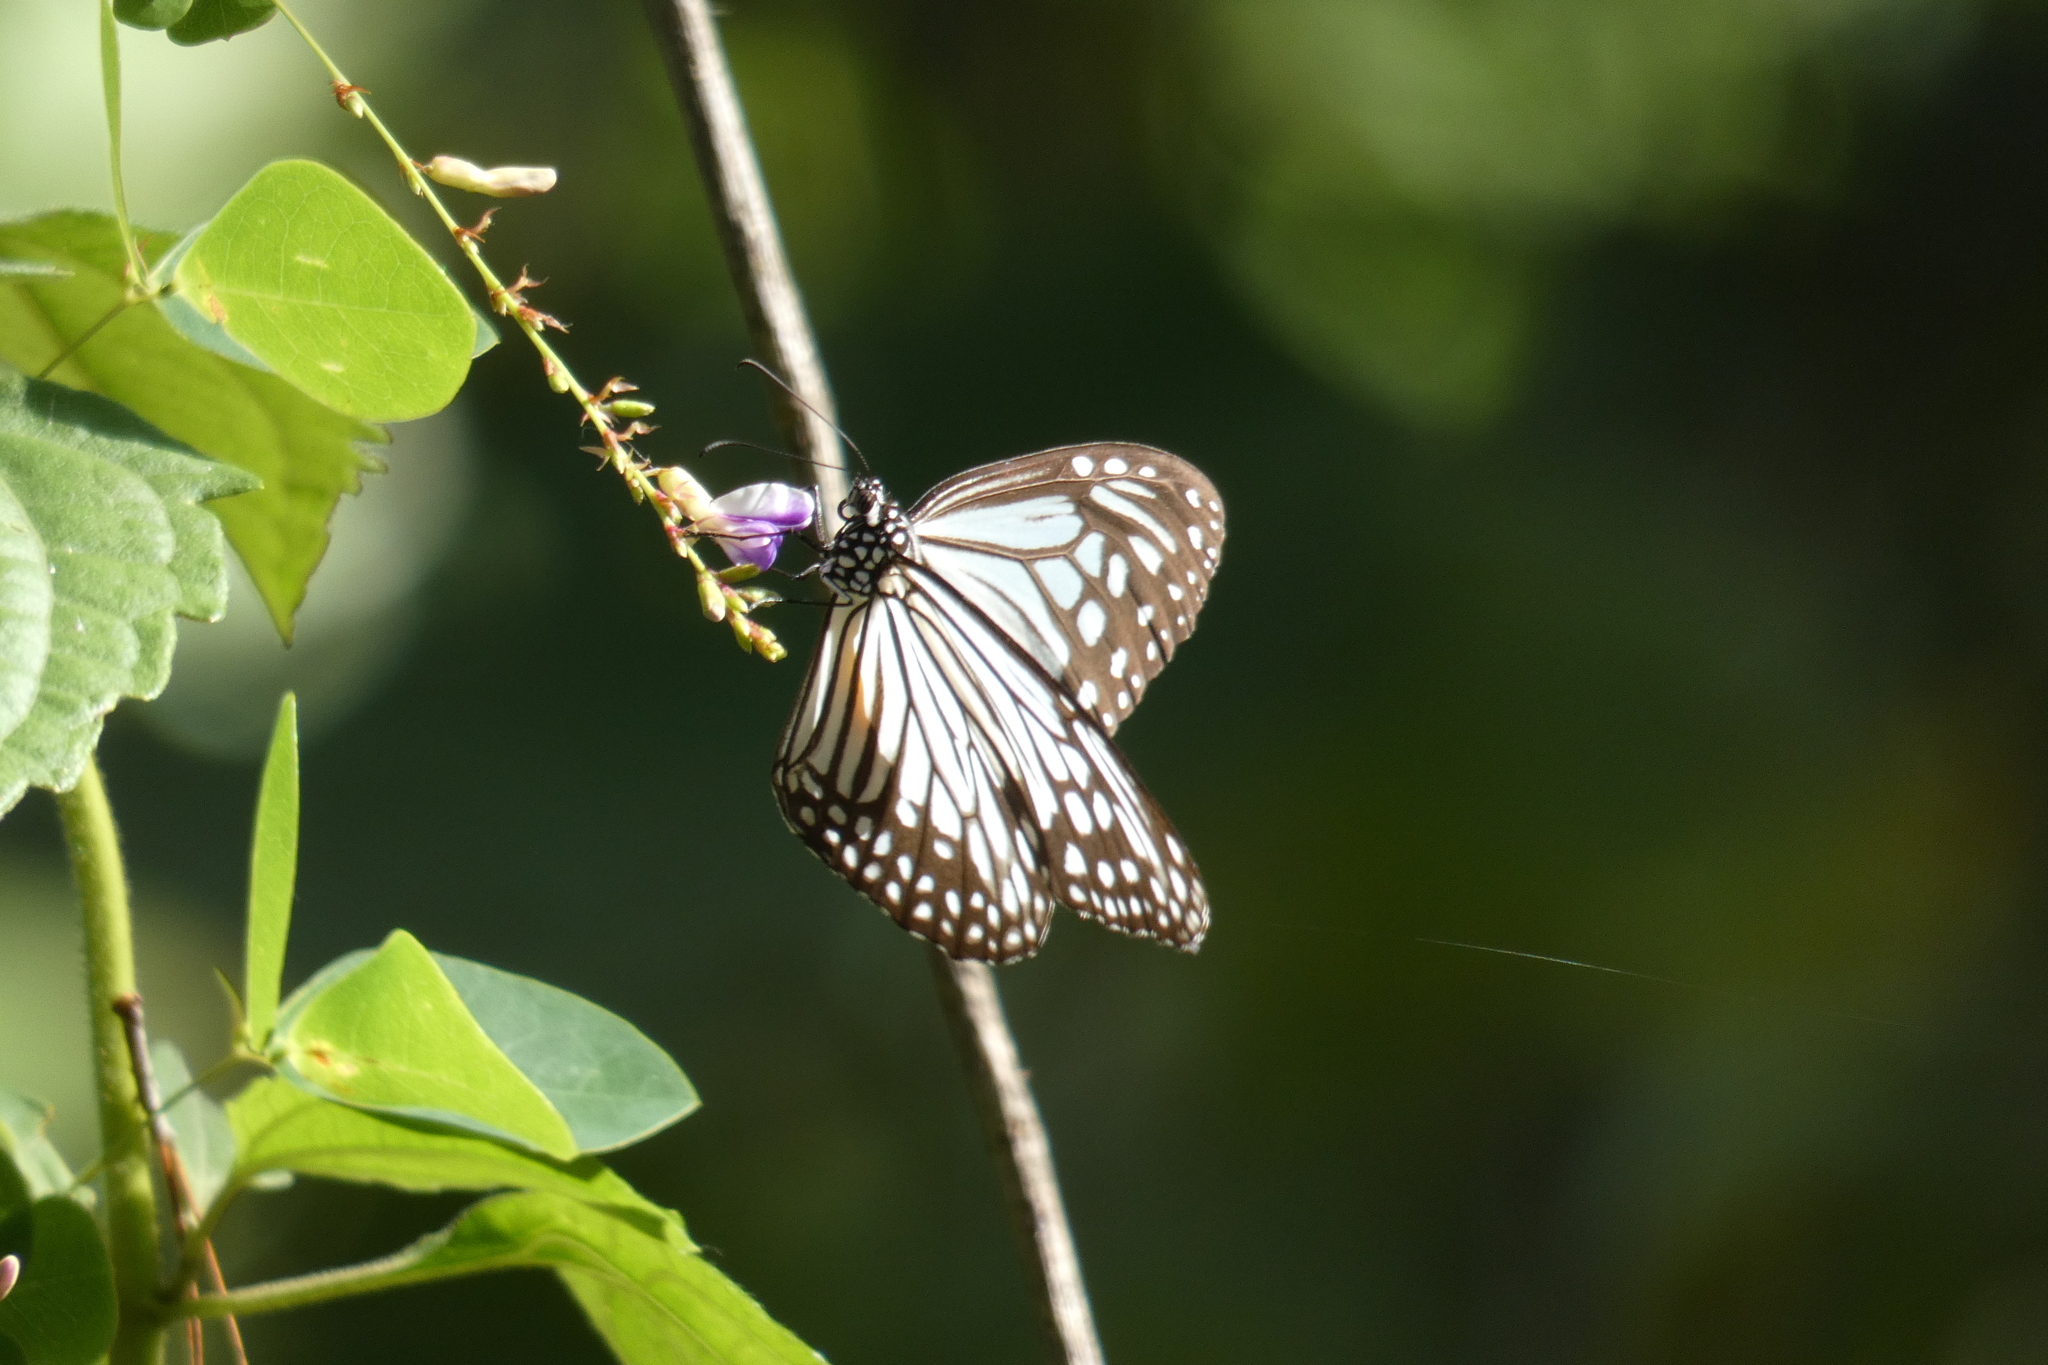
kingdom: Animalia
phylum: Arthropoda
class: Insecta
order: Lepidoptera
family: Nymphalidae
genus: Parantica
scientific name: Parantica aglea
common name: Glassy tiger
